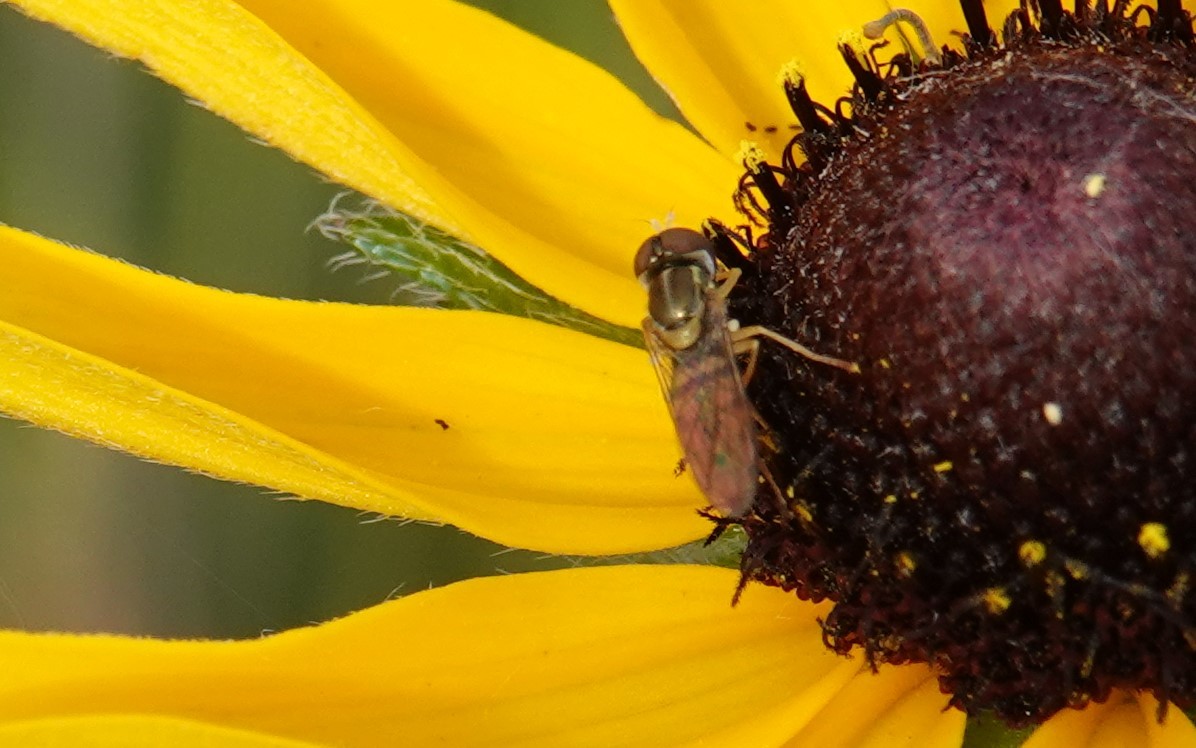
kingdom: Animalia
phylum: Arthropoda
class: Insecta
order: Diptera
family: Syrphidae
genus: Toxomerus
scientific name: Toxomerus marginatus
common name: Syrphid fly
